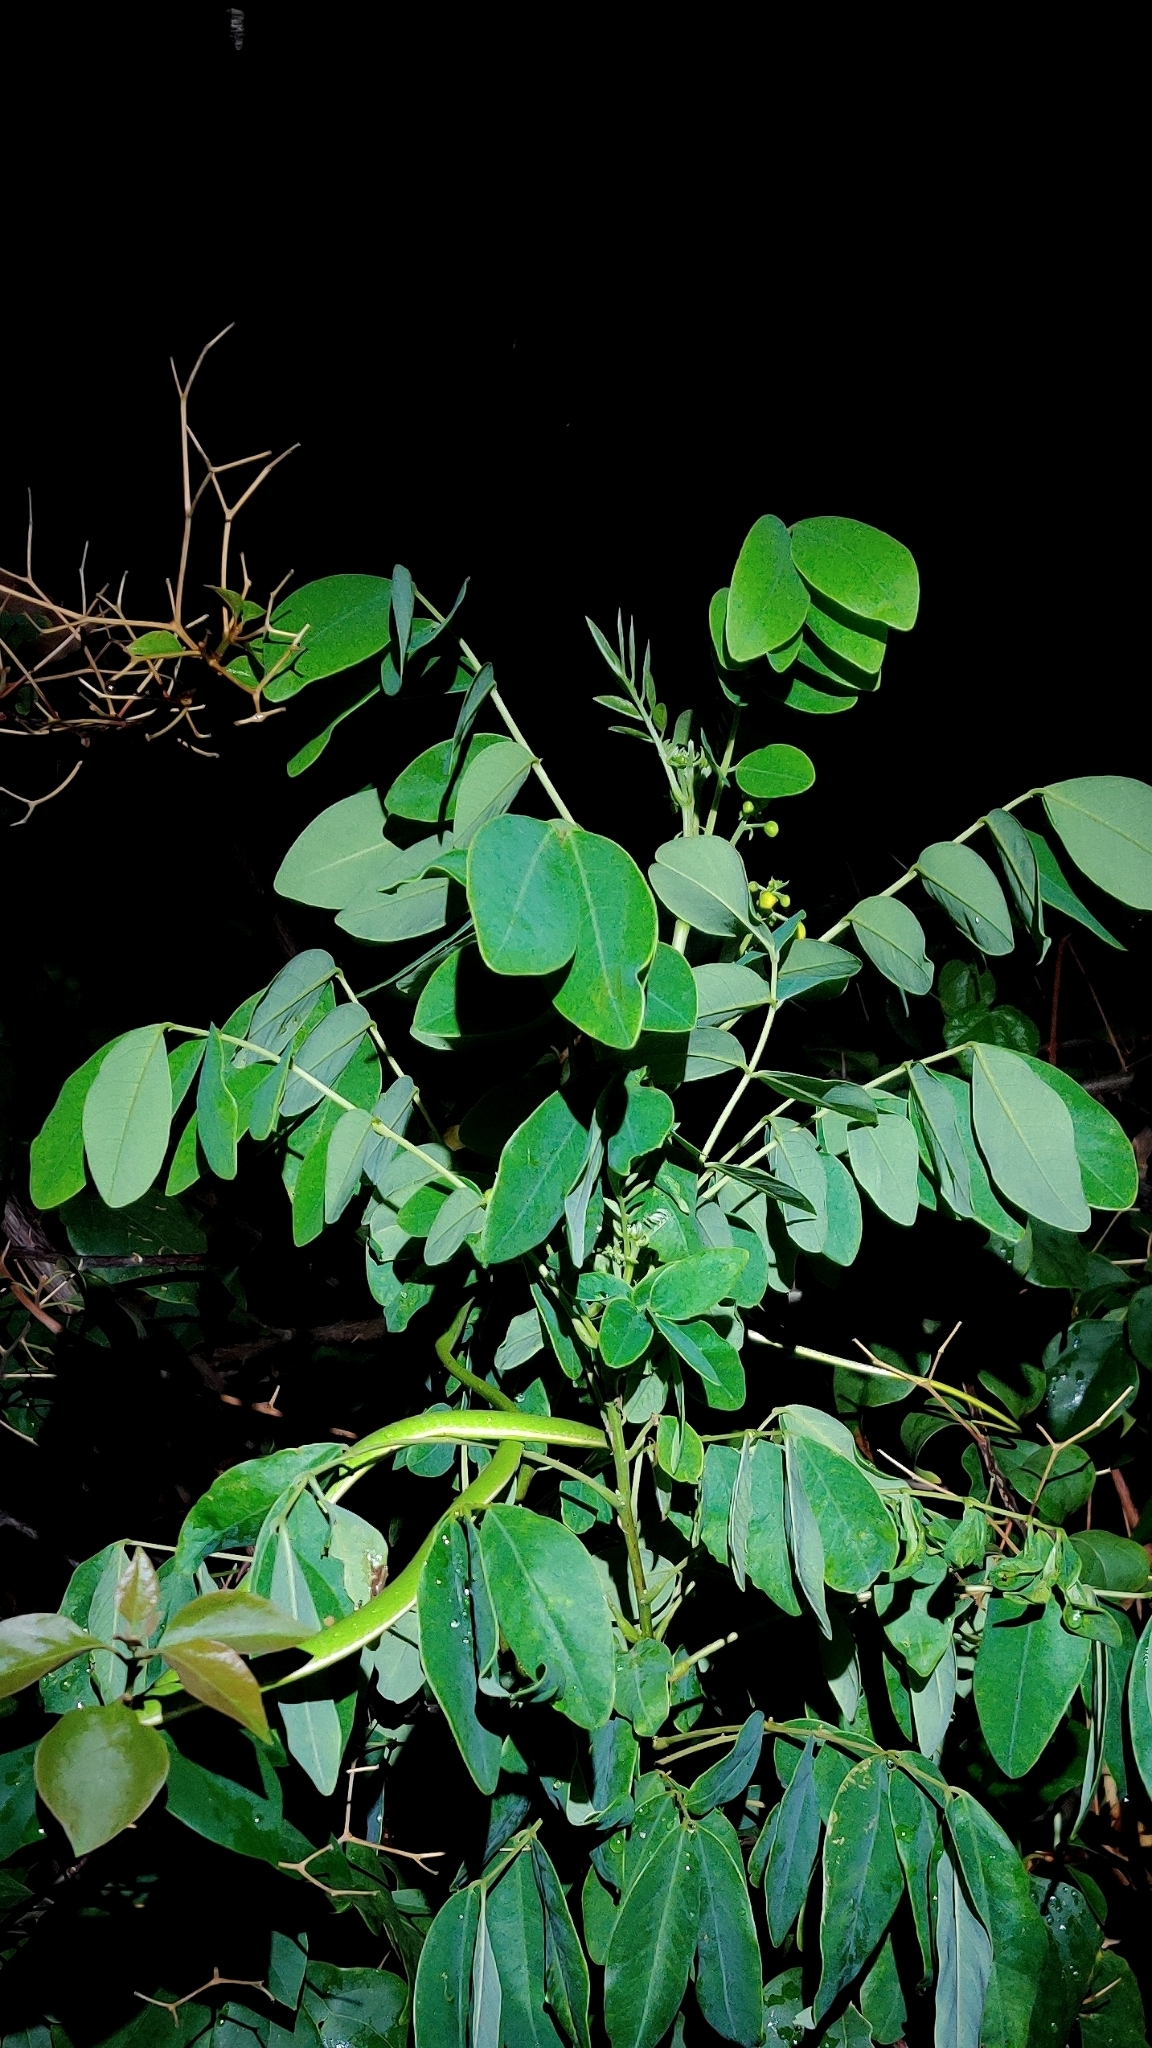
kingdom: Animalia
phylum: Chordata
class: Squamata
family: Colubridae
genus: Ahaetulla
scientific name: Ahaetulla oxyrhyncha
